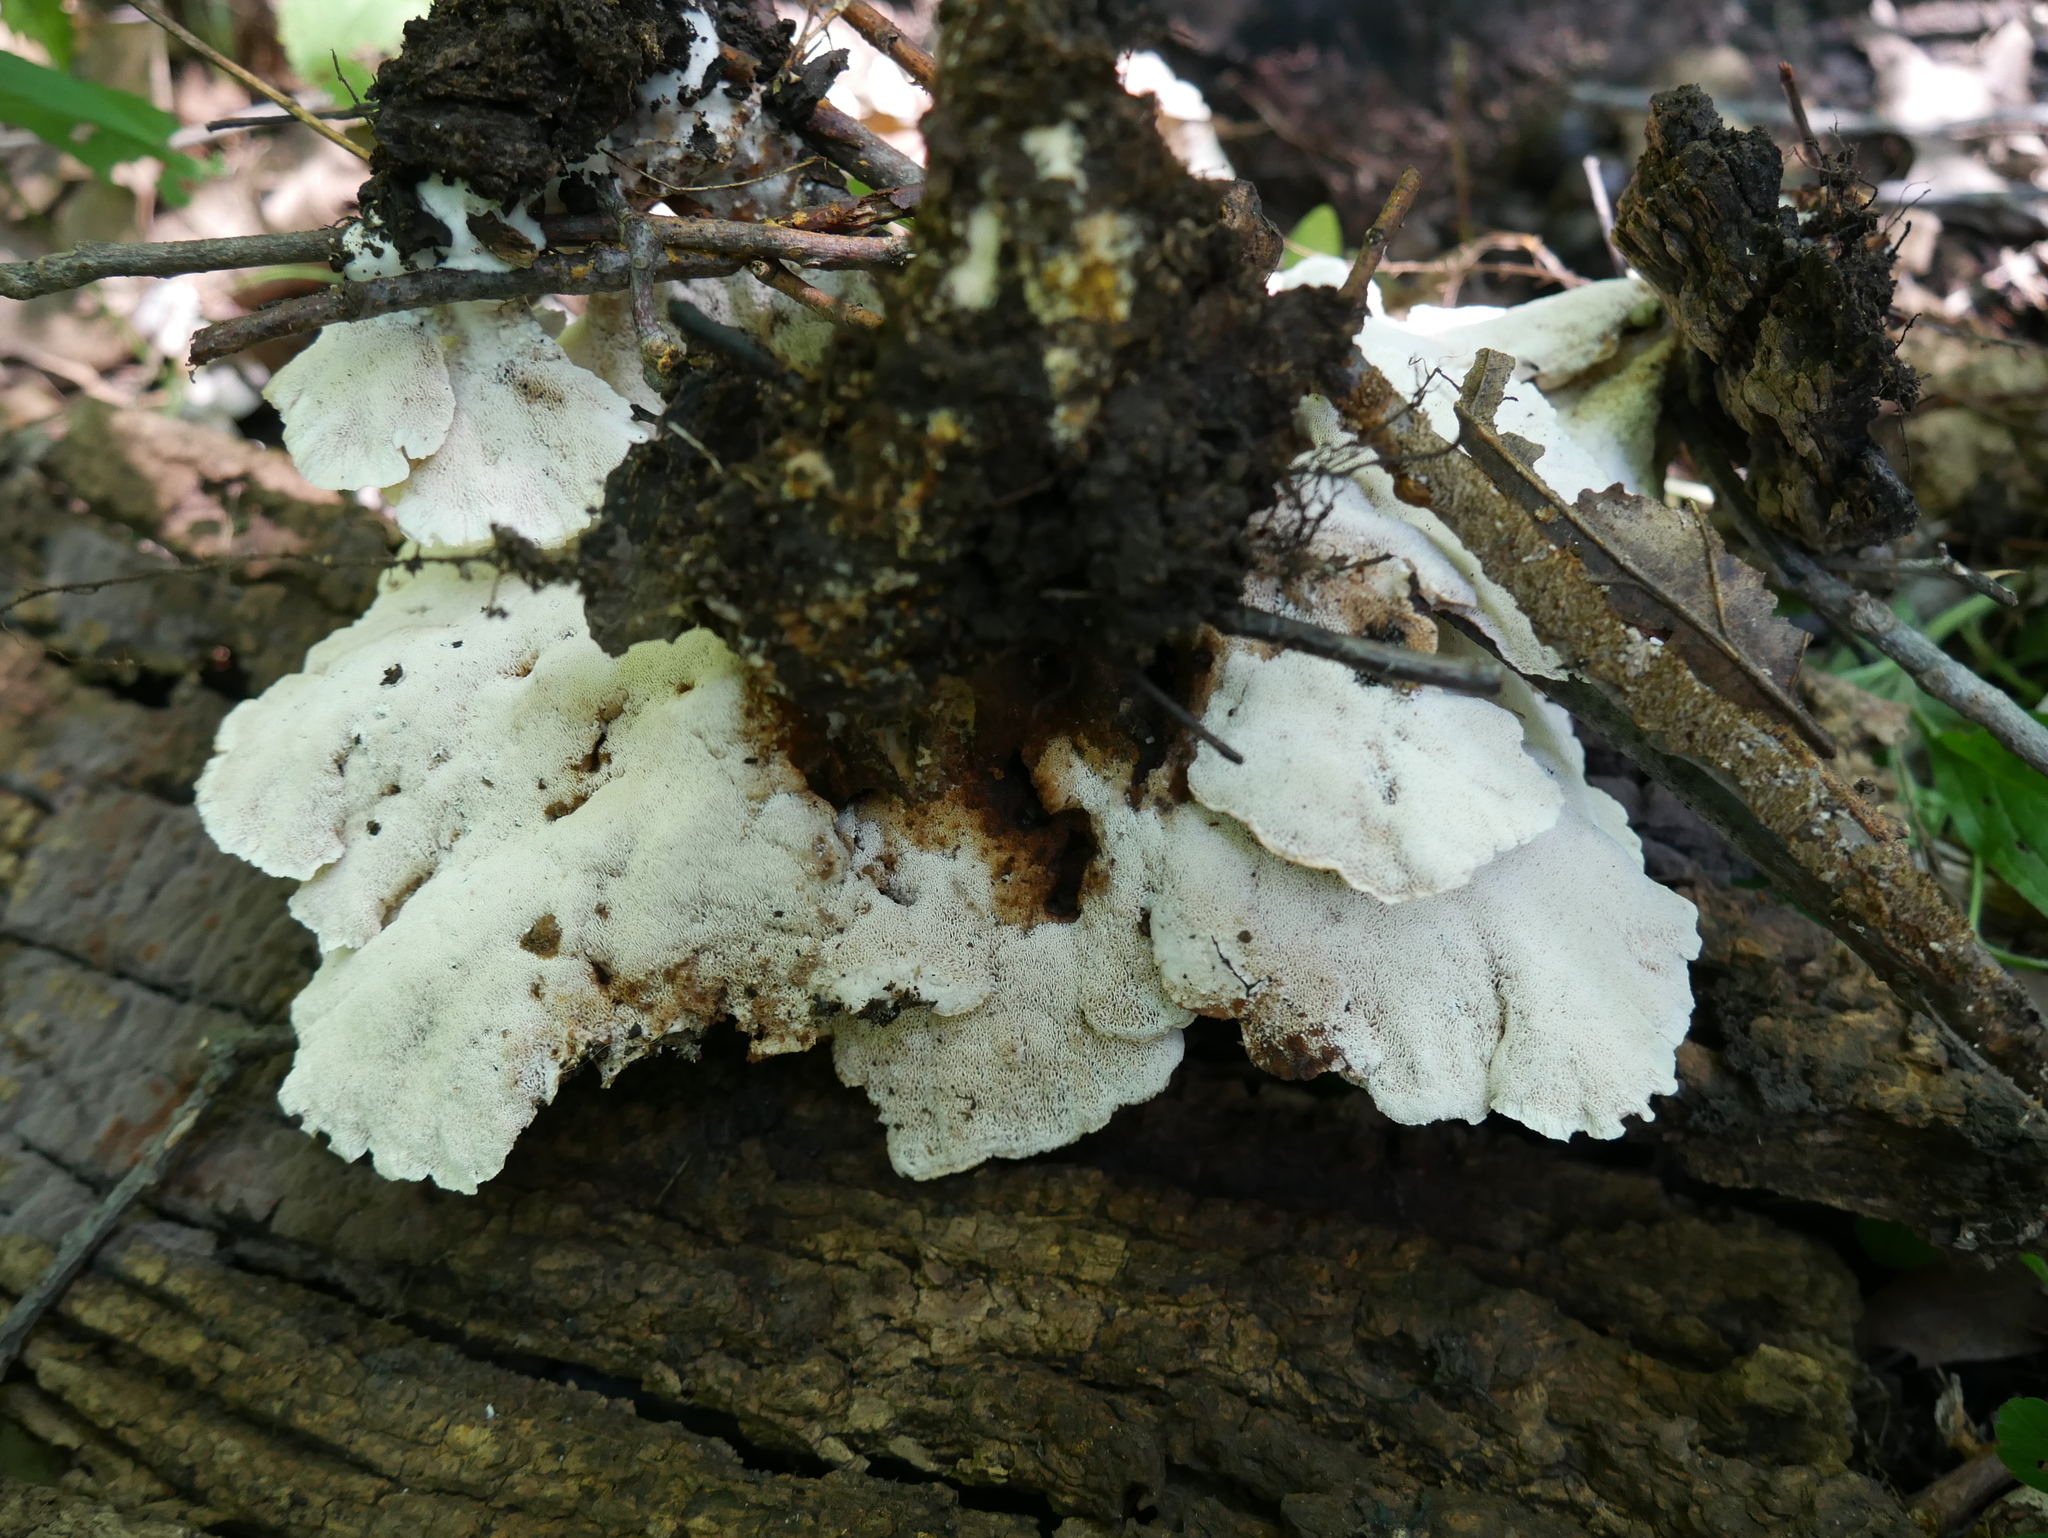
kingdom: Fungi
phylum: Basidiomycota
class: Agaricomycetes
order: Polyporales
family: Podoscyphaceae
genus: Abortiporus
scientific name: Abortiporus biennis
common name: Blushing rosette
